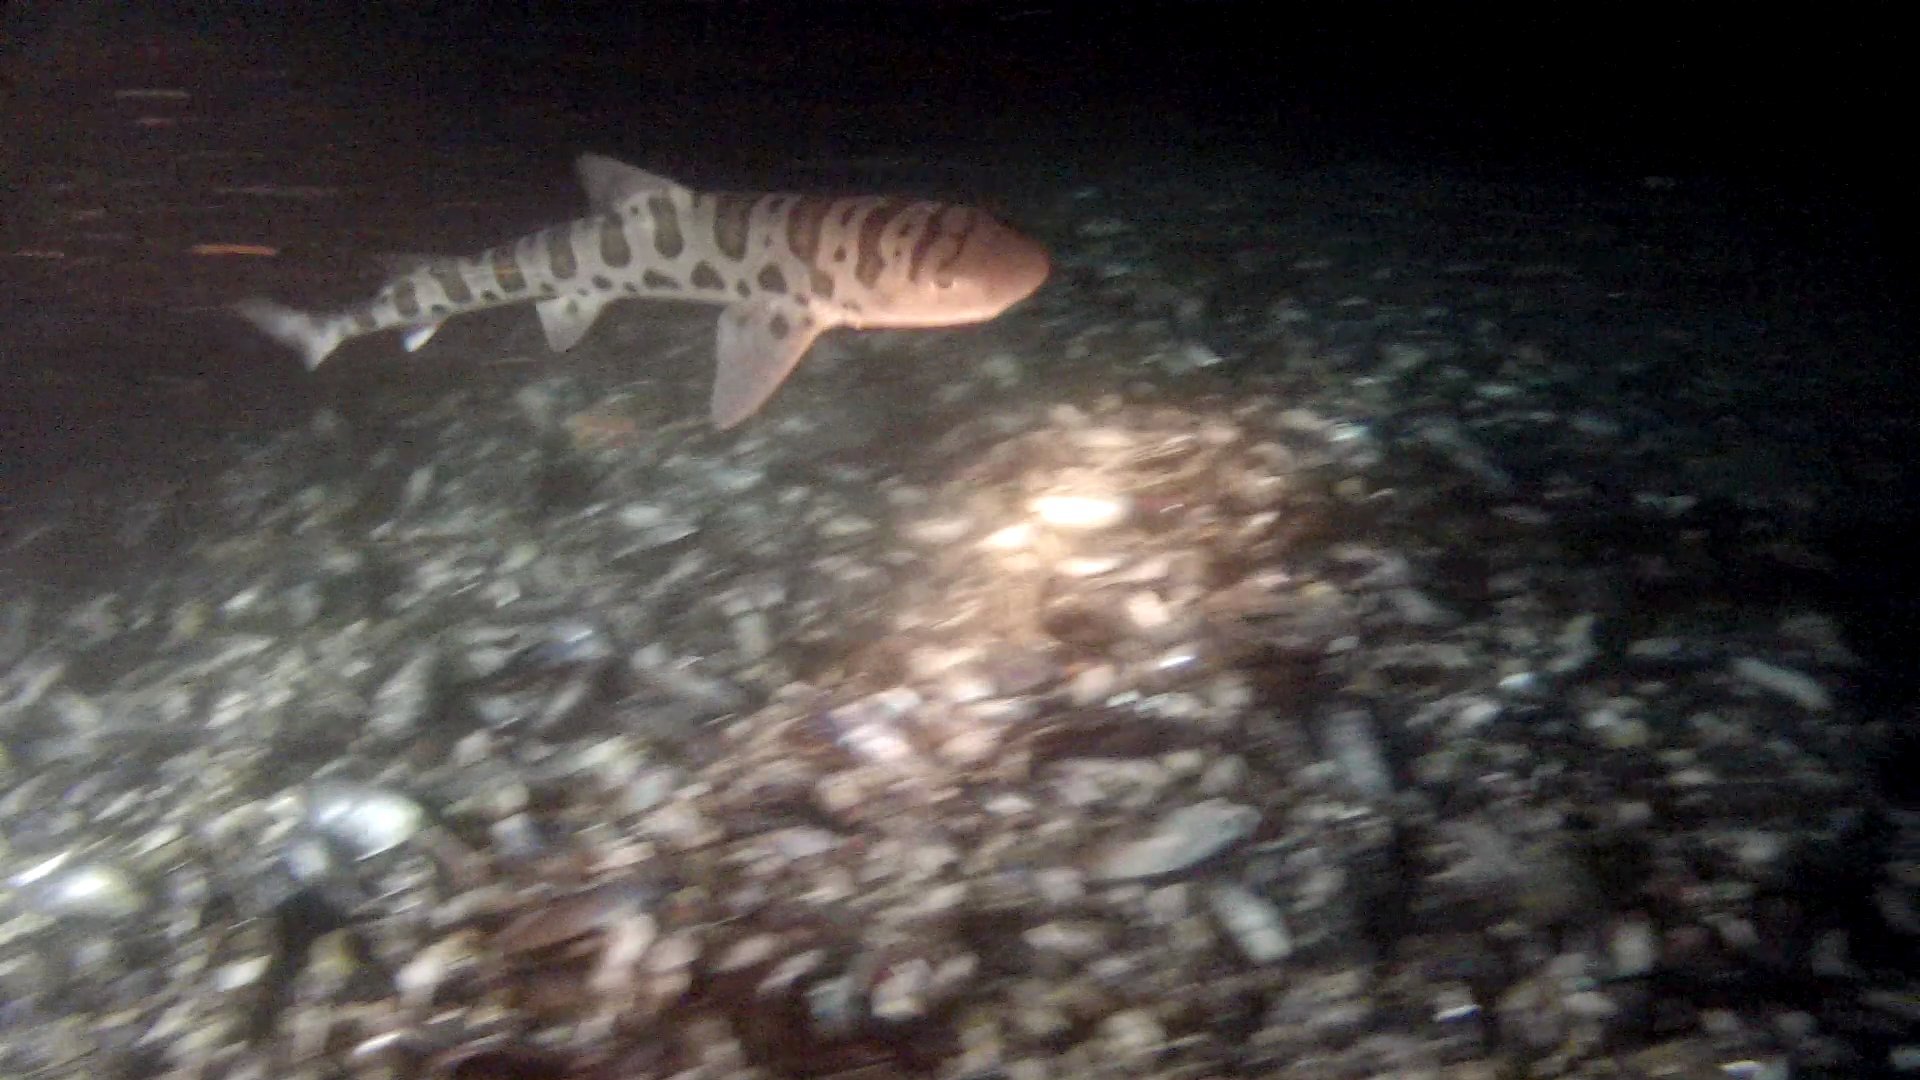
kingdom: Animalia
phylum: Chordata
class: Elasmobranchii
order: Carcharhiniformes
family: Triakidae
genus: Triakis
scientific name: Triakis semifasciata
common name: Leopard shark
